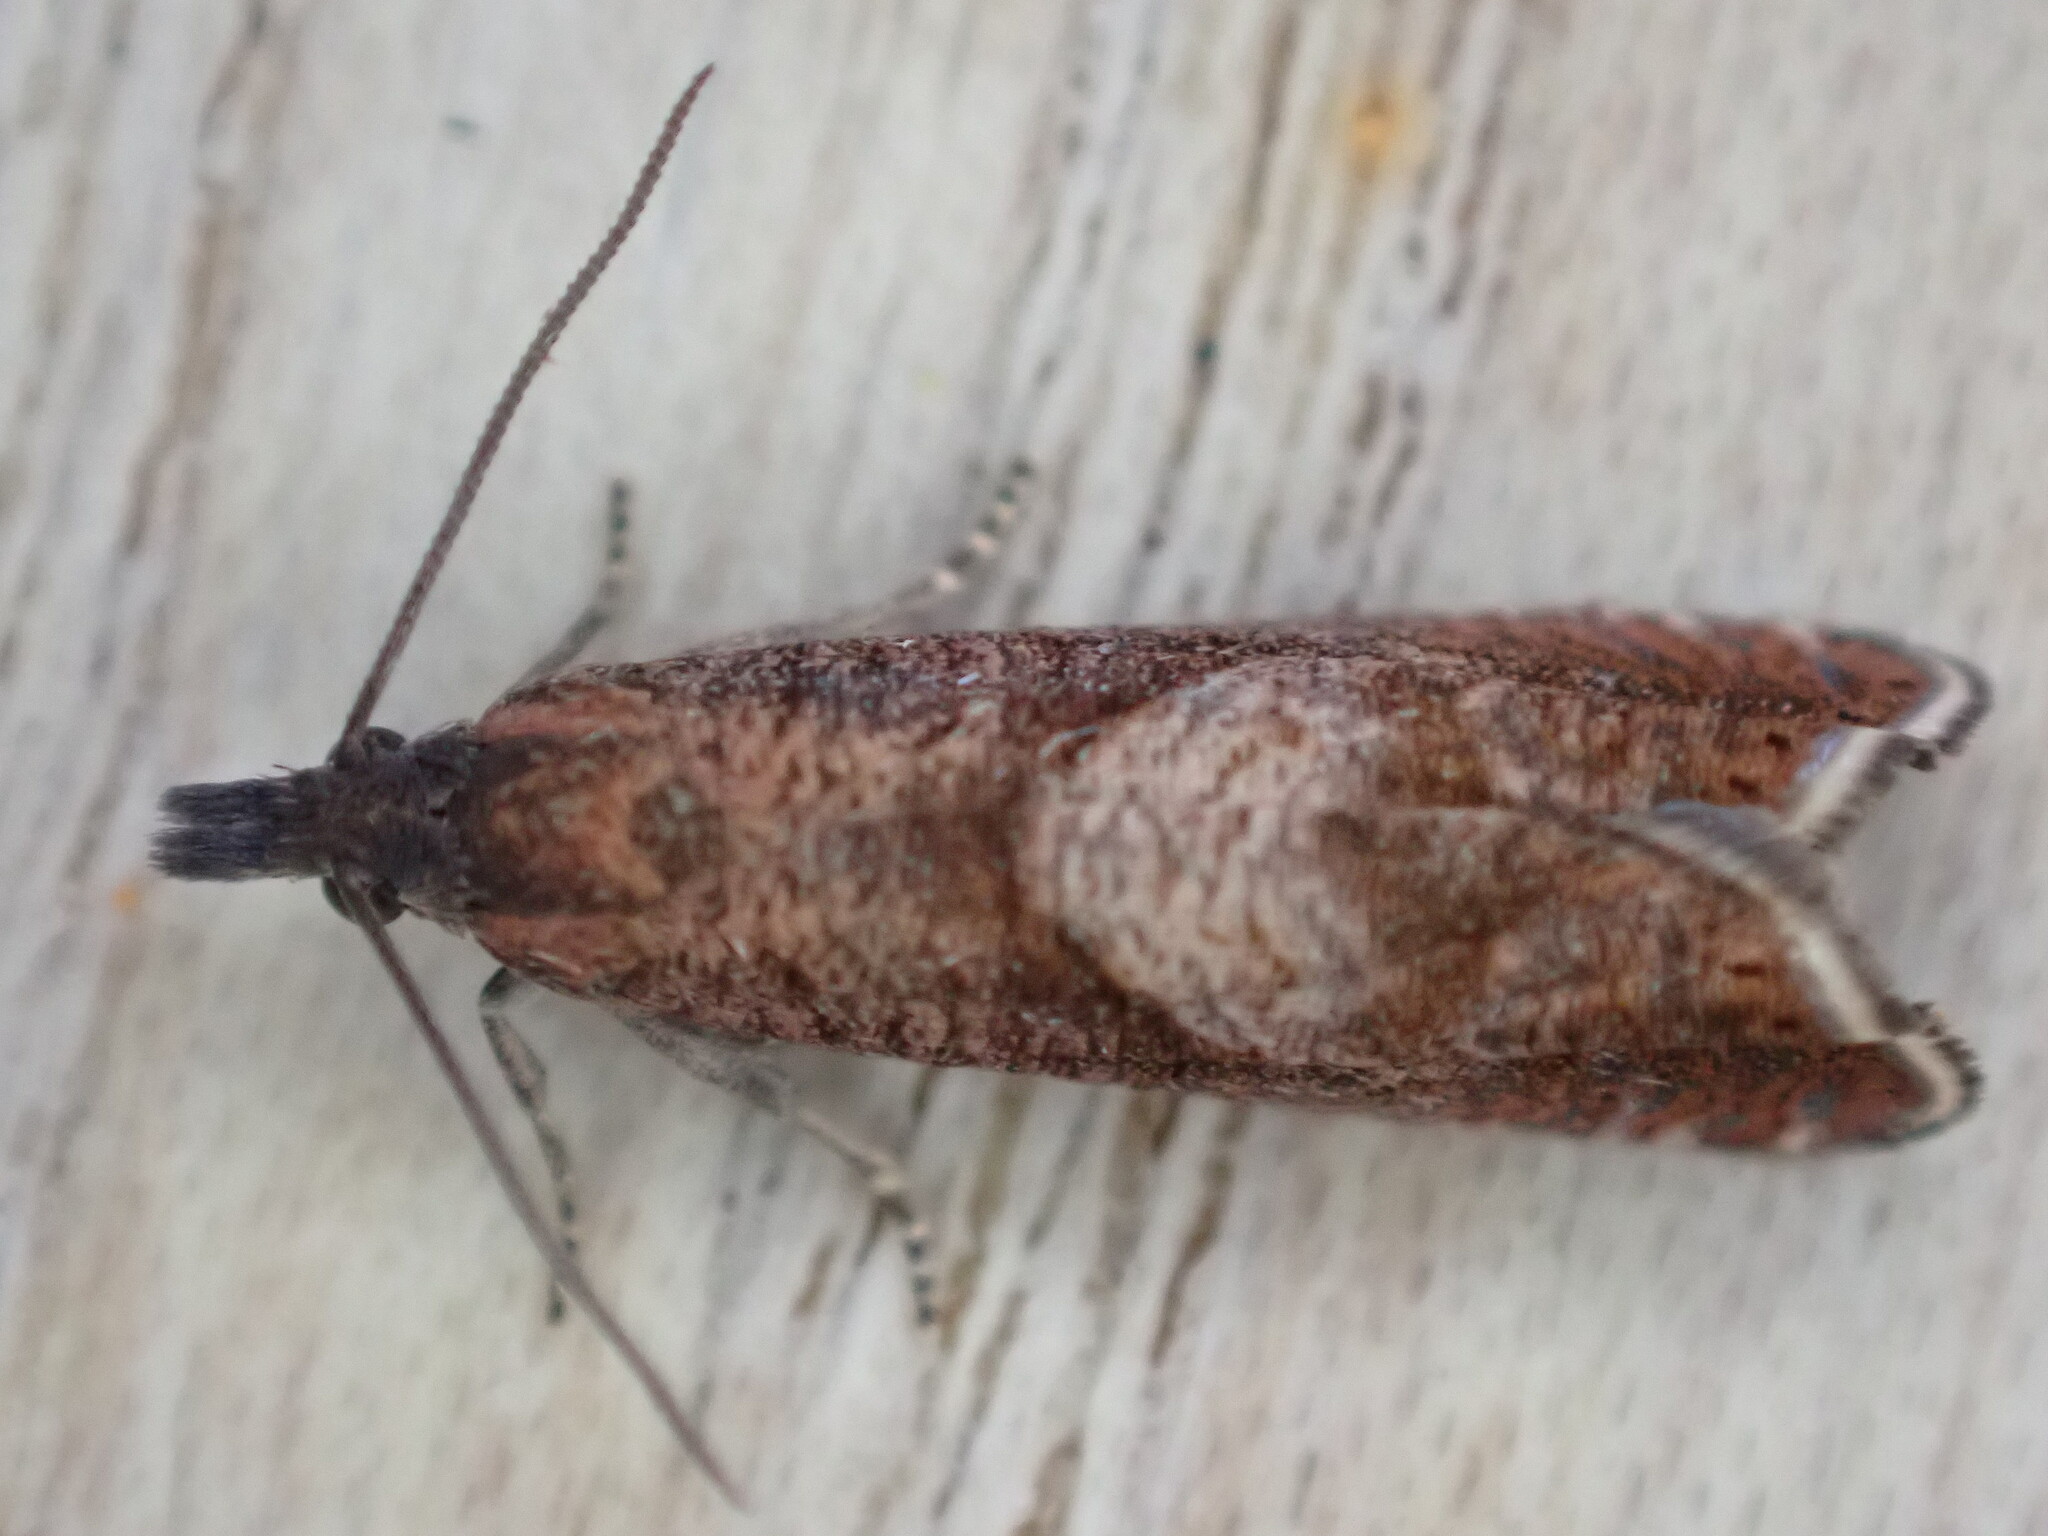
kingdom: Animalia
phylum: Arthropoda
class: Insecta
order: Lepidoptera
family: Tortricidae
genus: Dichrorampha
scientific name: Dichrorampha acuminatana
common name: Sharp-winged drill
